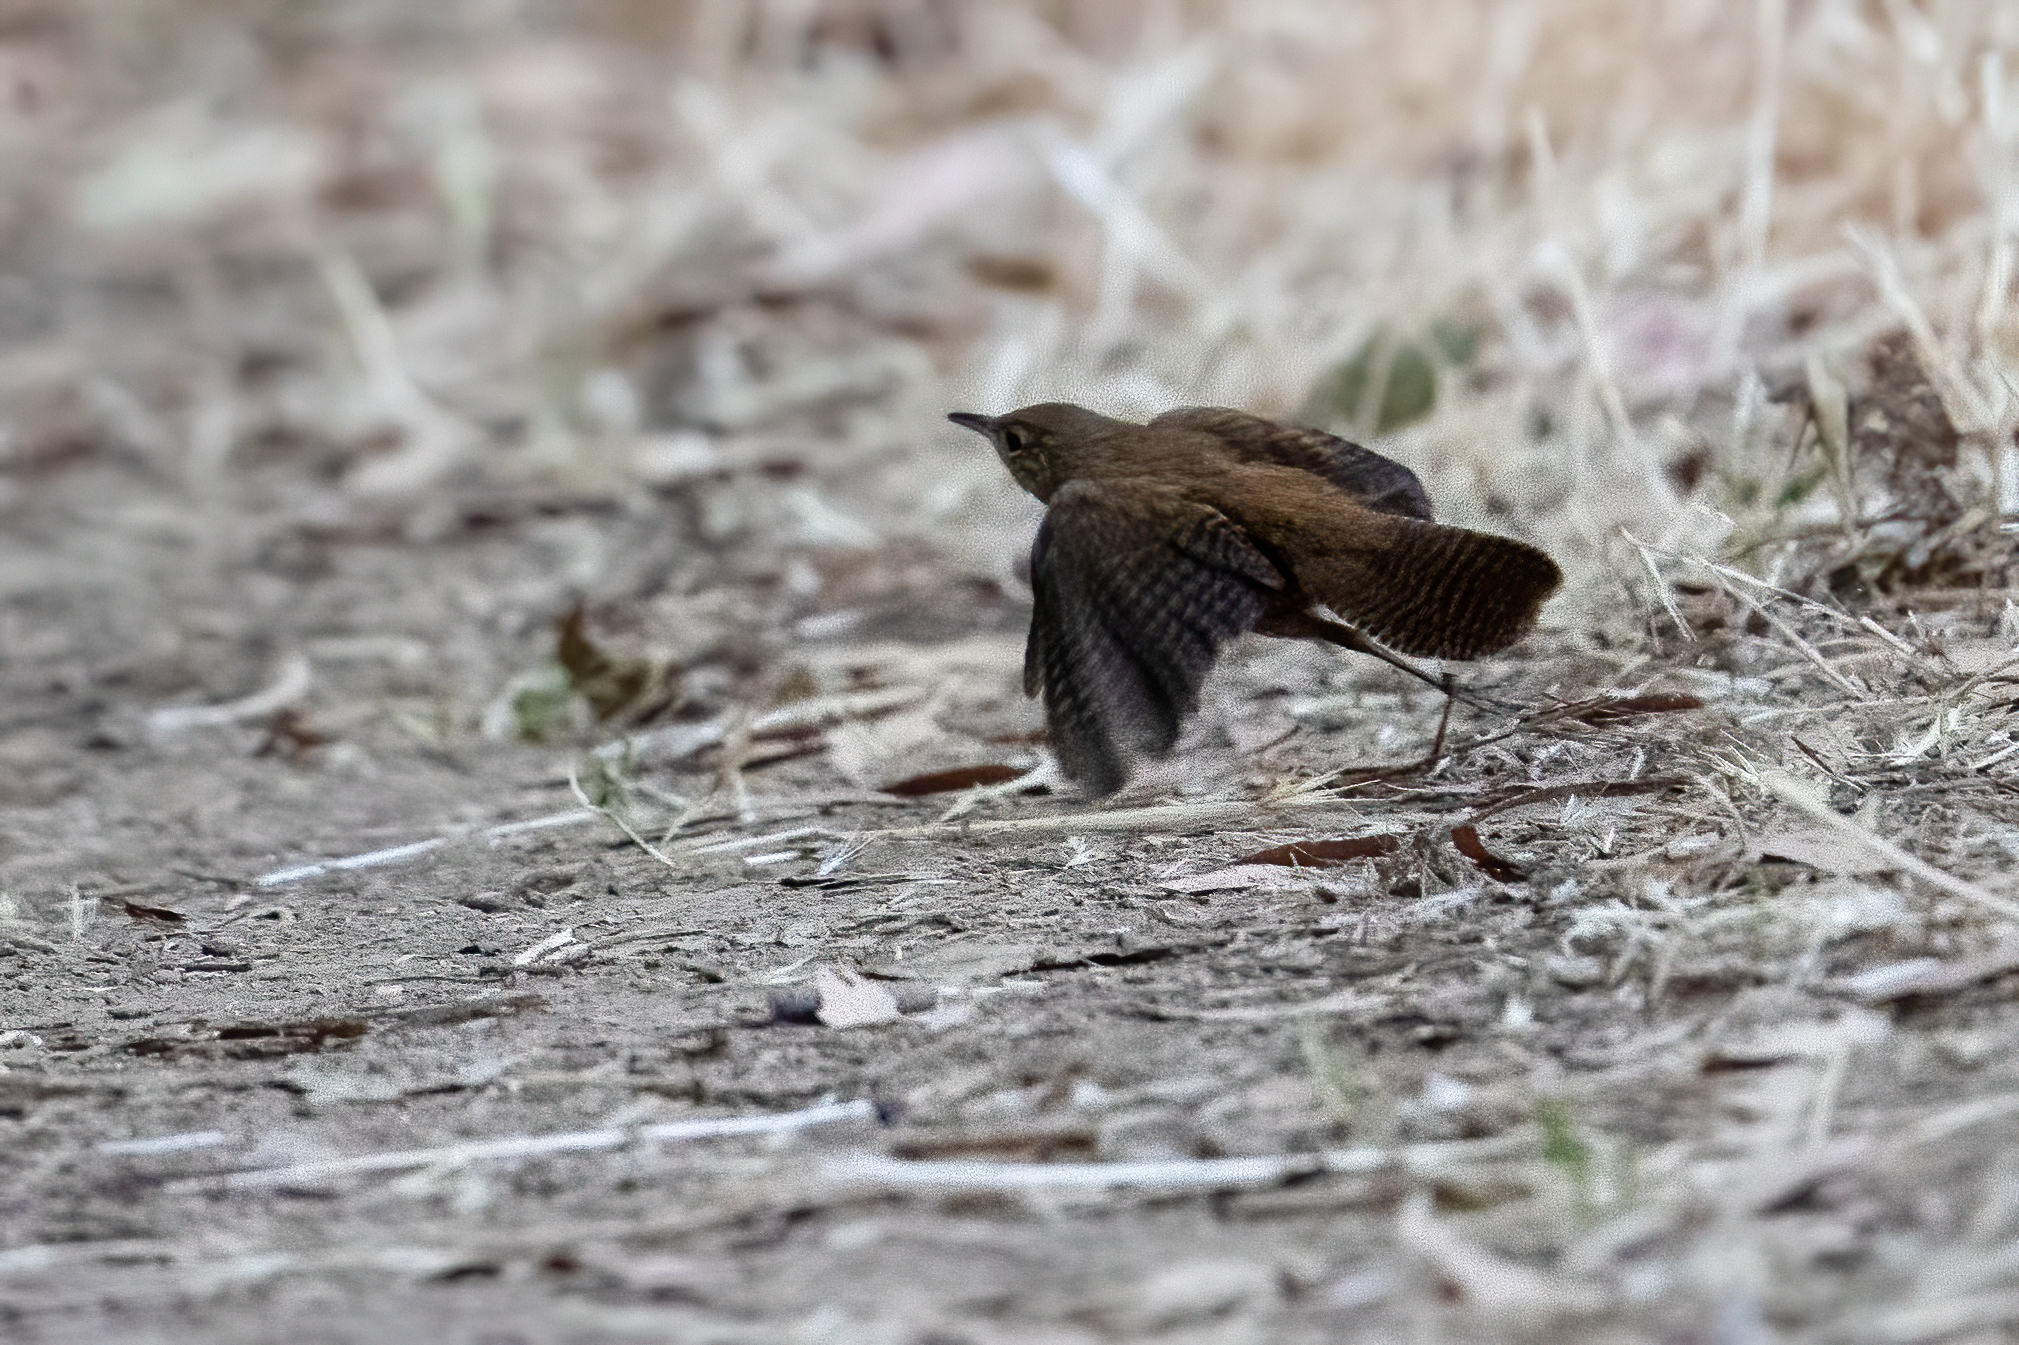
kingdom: Animalia
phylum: Chordata
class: Aves
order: Passeriformes
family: Troglodytidae
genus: Troglodytes
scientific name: Troglodytes aedon
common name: House wren
